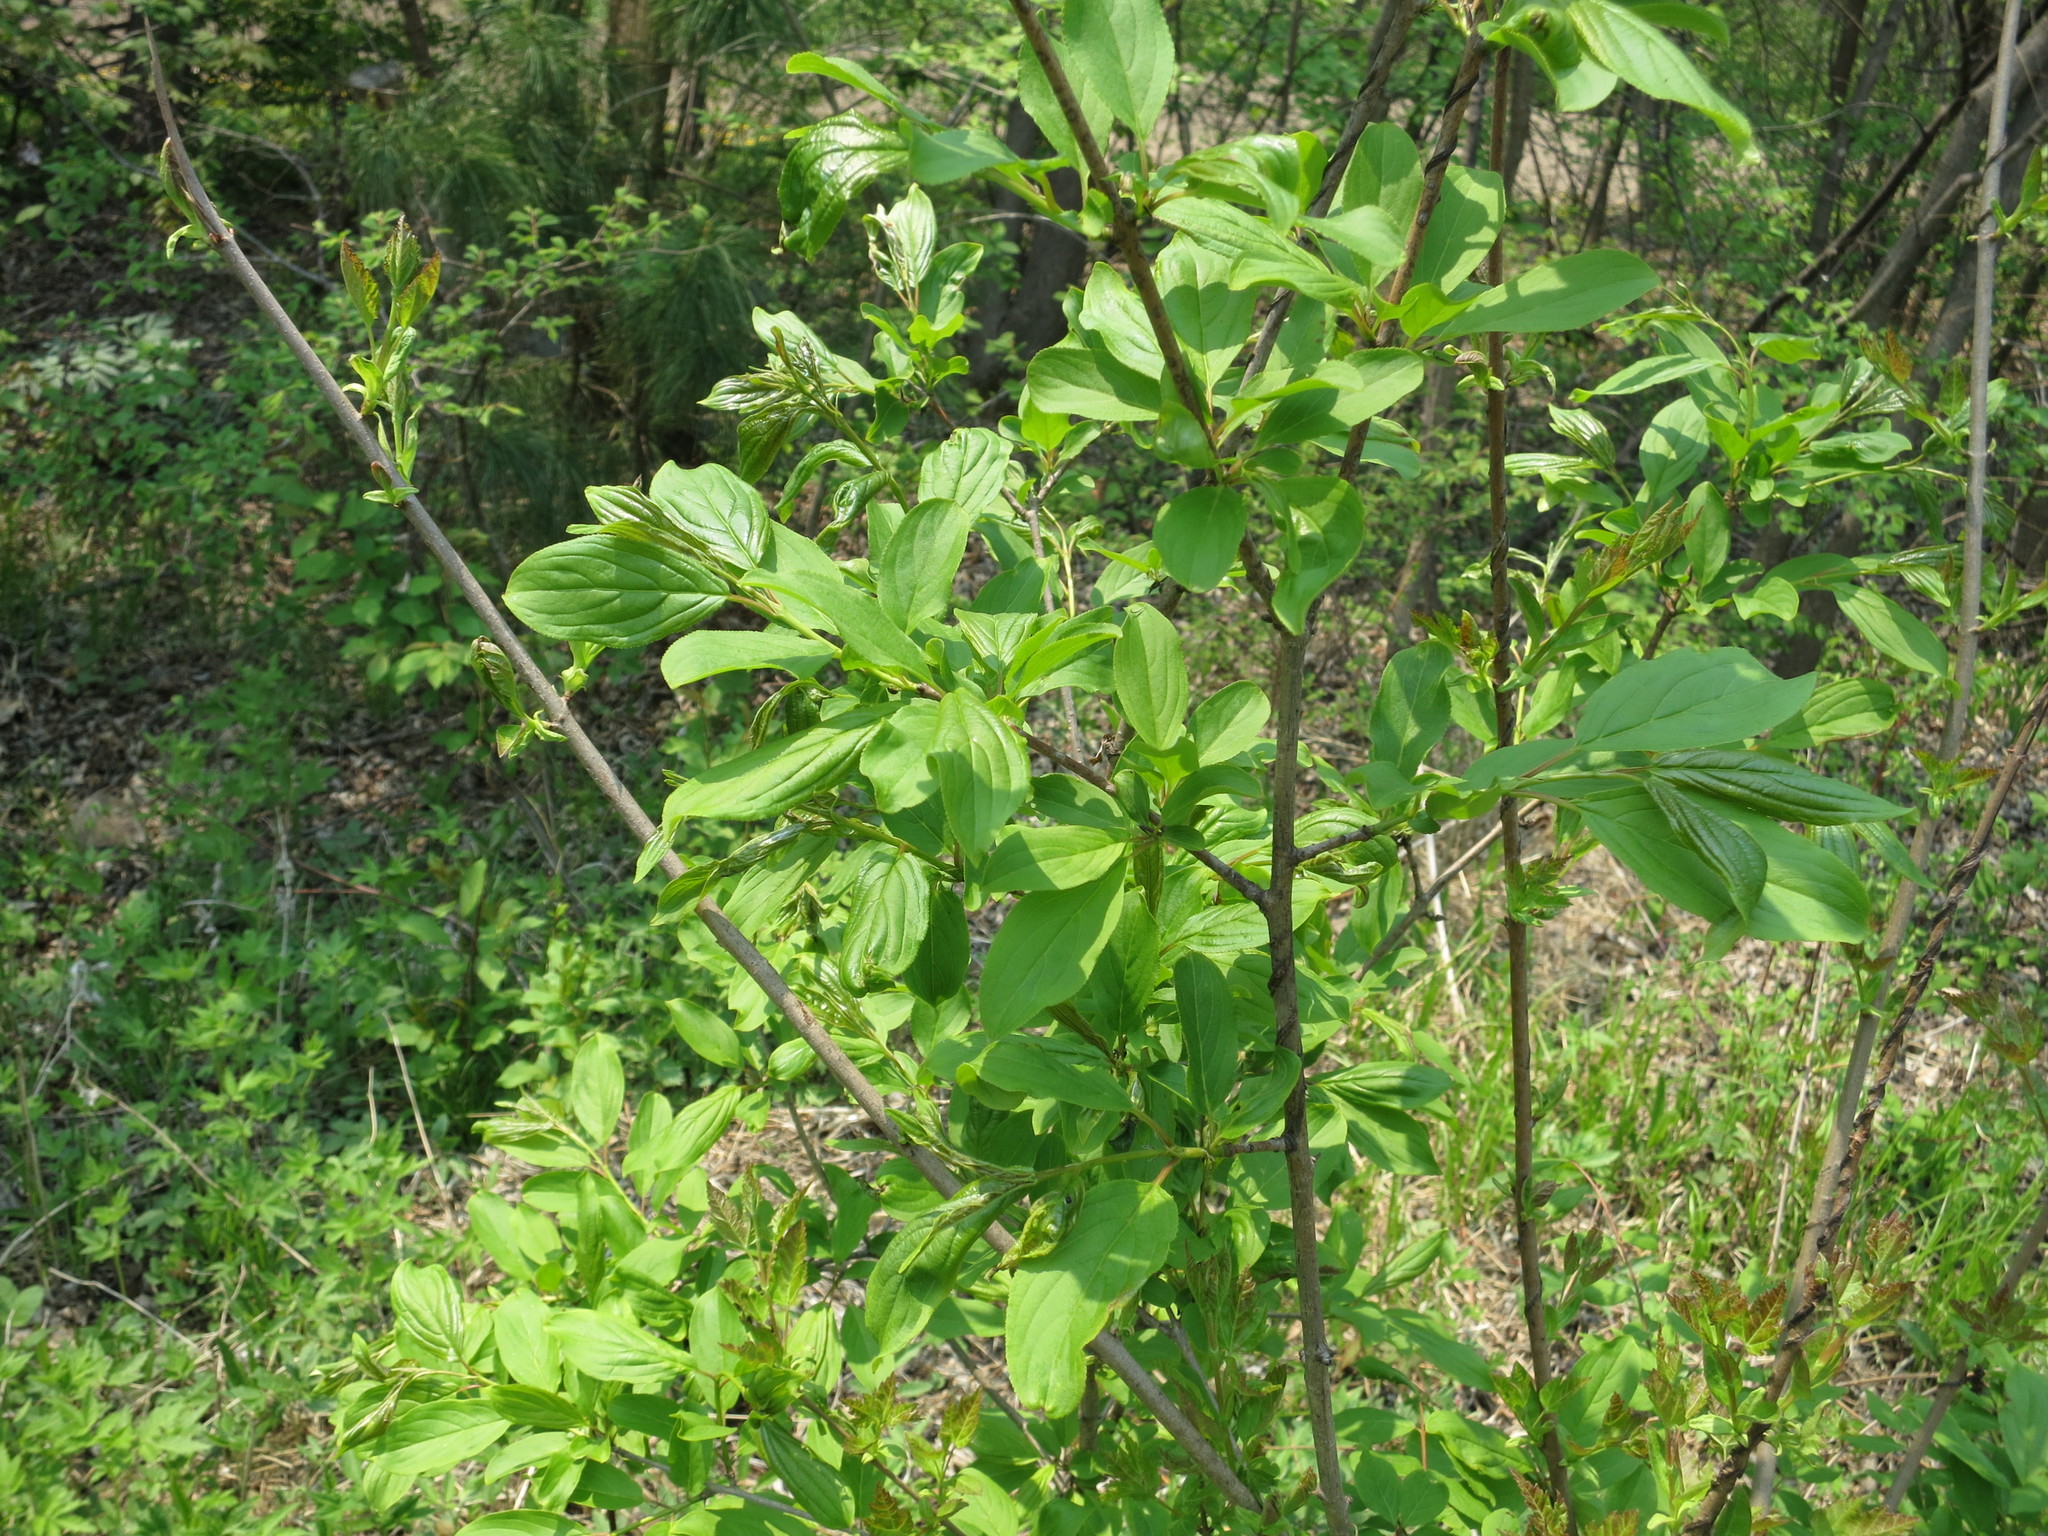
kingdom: Plantae
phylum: Tracheophyta
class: Magnoliopsida
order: Rosales
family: Rhamnaceae
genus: Rhamnus
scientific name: Rhamnus virgata
